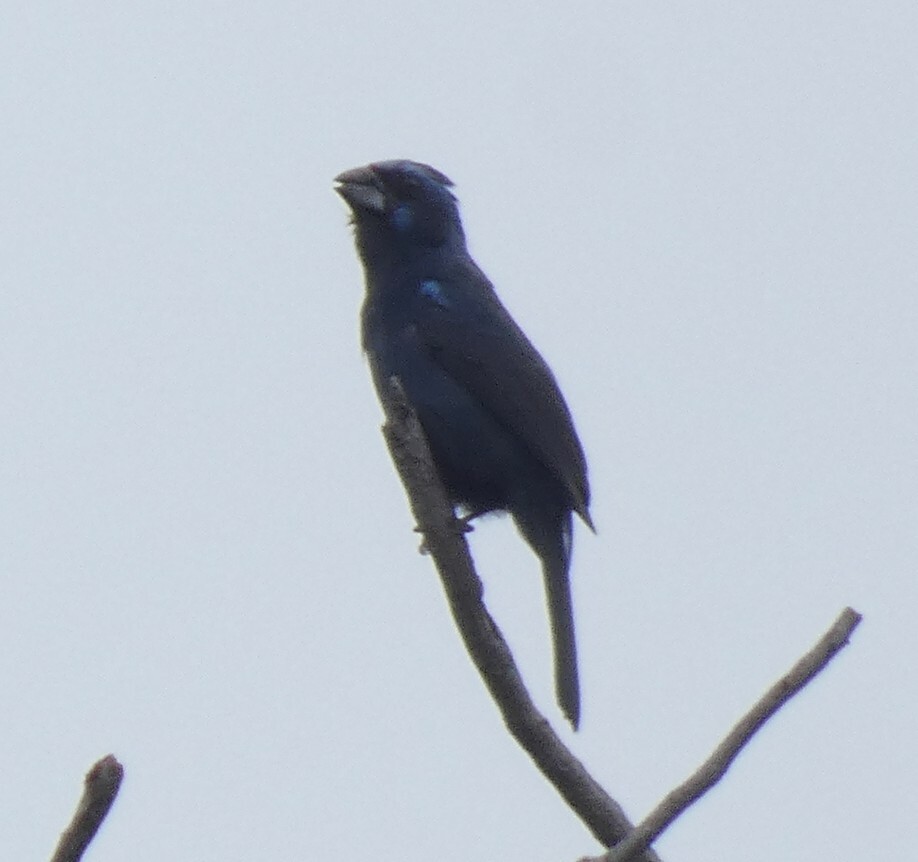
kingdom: Animalia
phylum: Chordata
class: Aves
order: Passeriformes
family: Cardinalidae
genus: Cyanoloxia
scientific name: Cyanoloxia brissonii
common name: Ultramarine grosbeak
